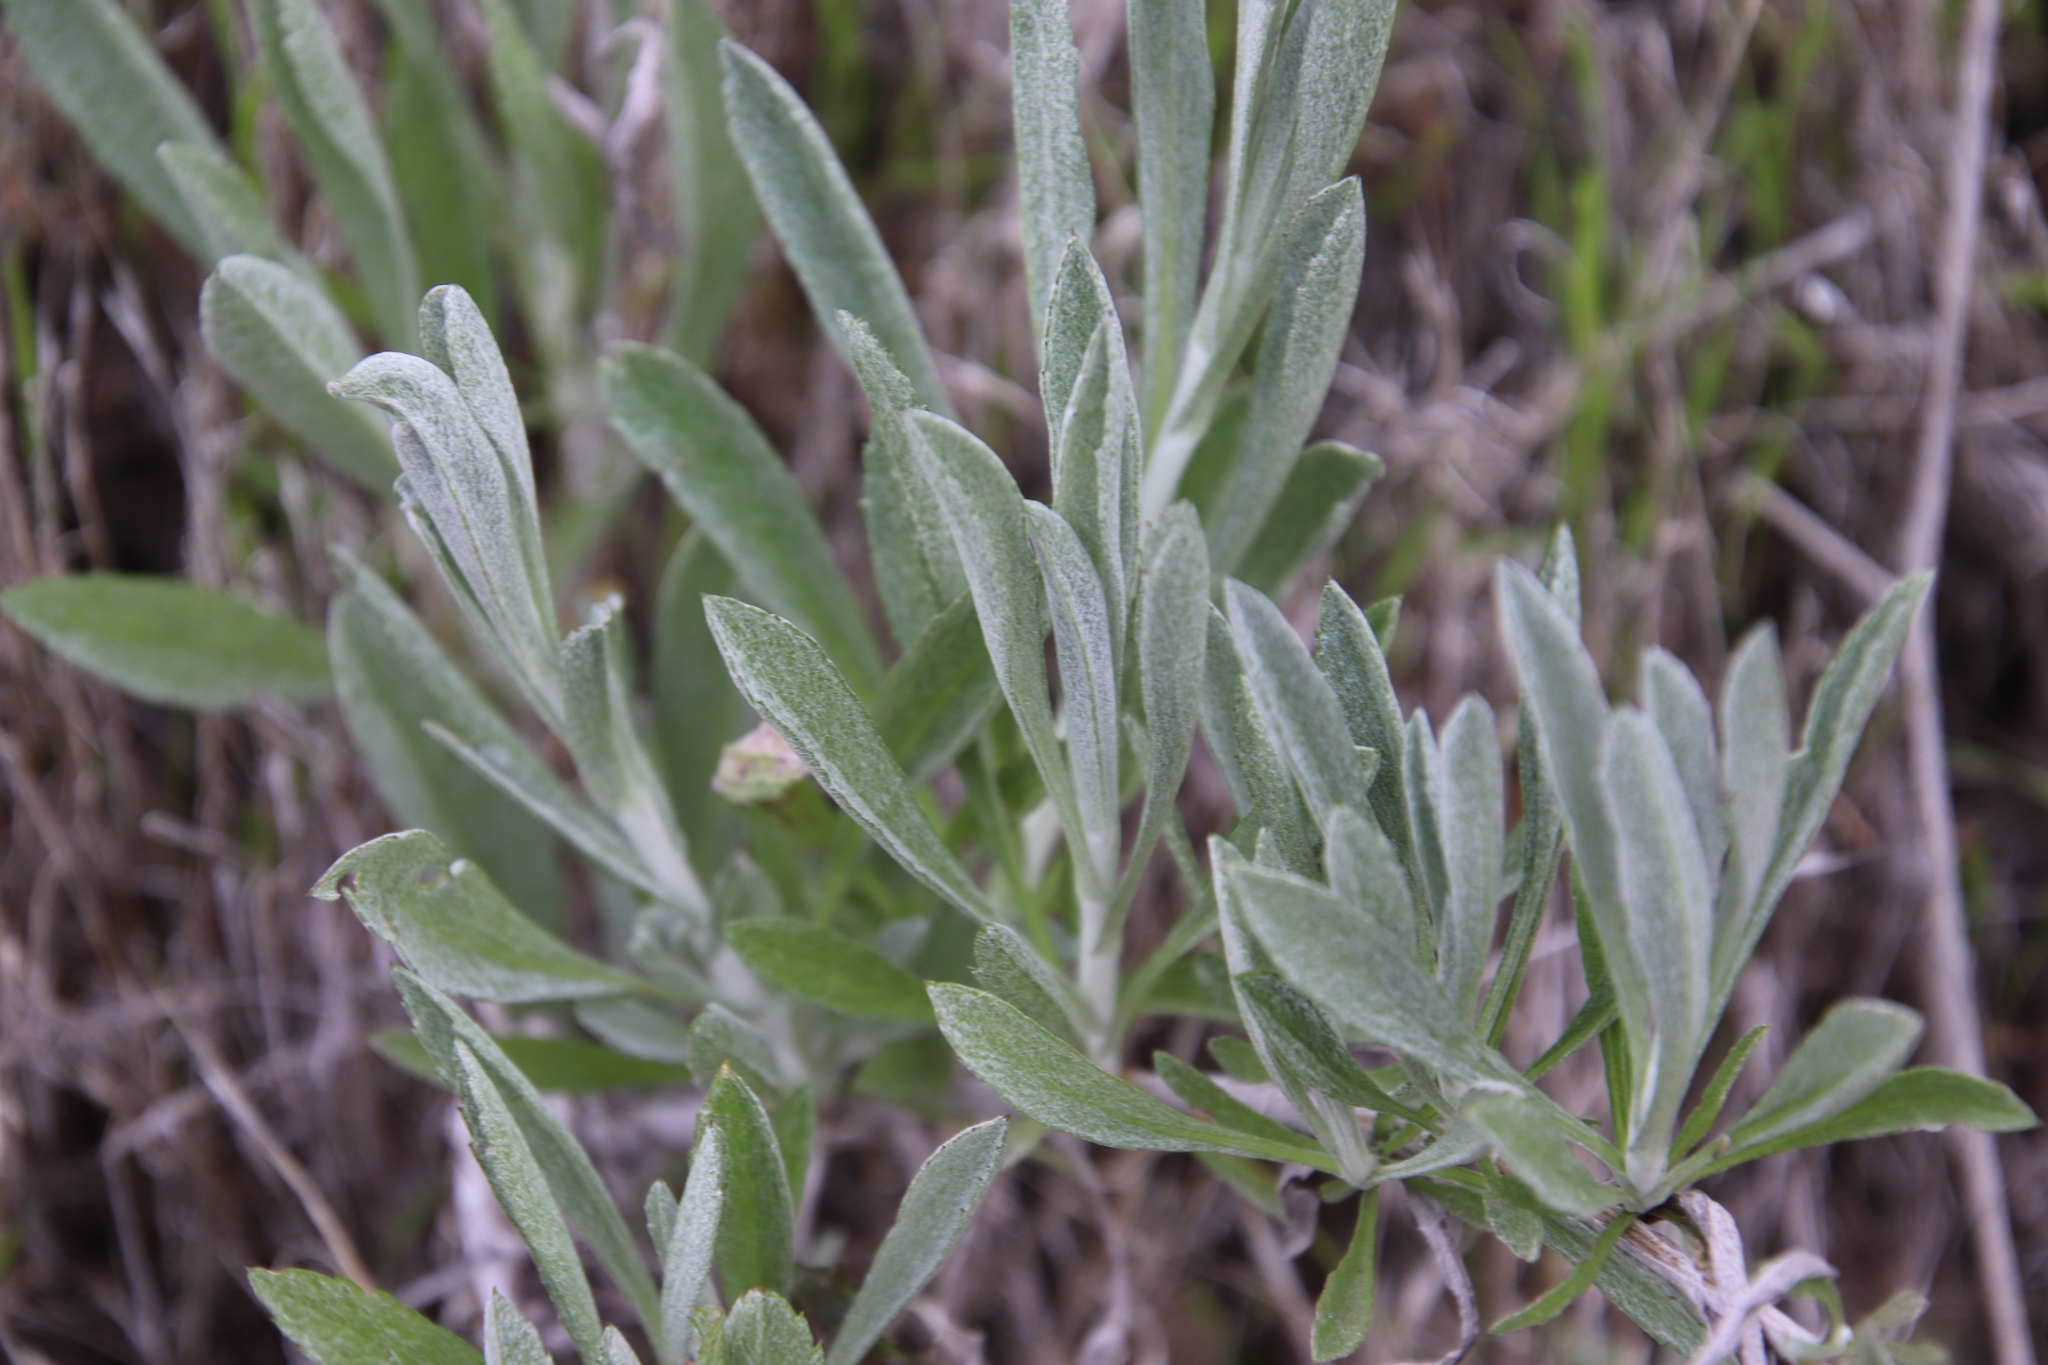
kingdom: Plantae
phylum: Tracheophyta
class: Magnoliopsida
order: Asterales
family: Asteraceae
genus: Corethrogyne
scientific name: Corethrogyne filaginifolia
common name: Sand-aster
